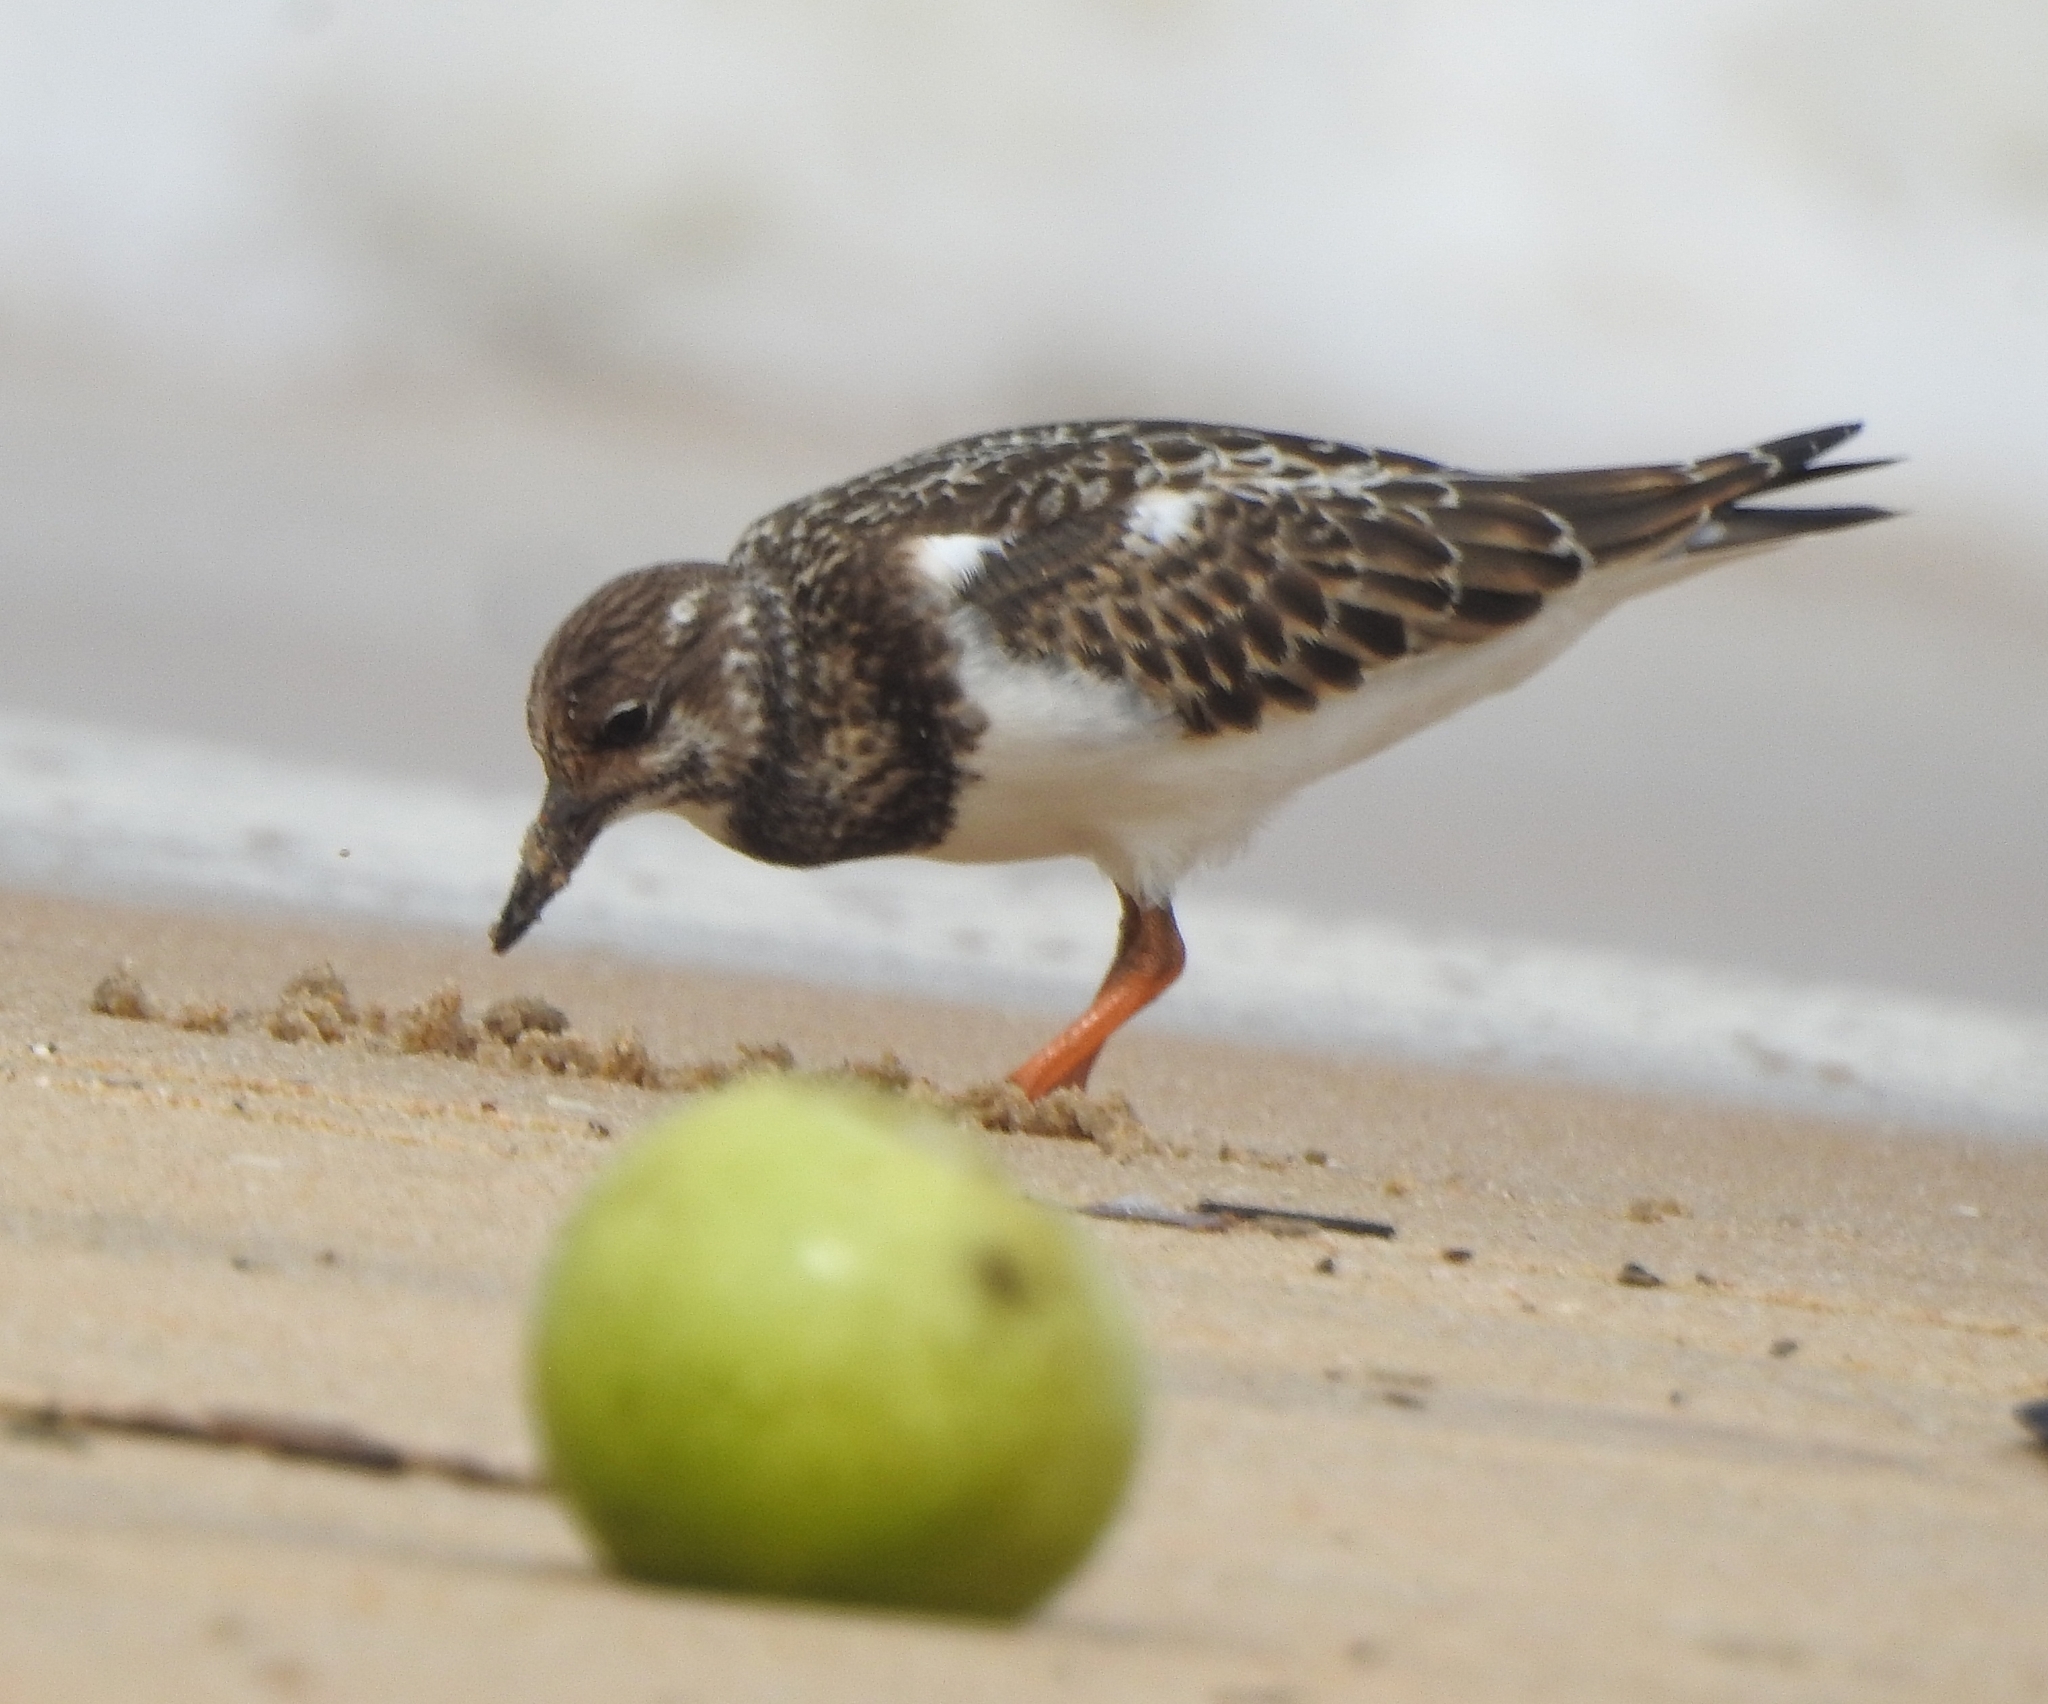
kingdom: Animalia
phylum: Chordata
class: Aves
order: Charadriiformes
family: Scolopacidae
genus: Arenaria
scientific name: Arenaria interpres
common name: Ruddy turnstone
